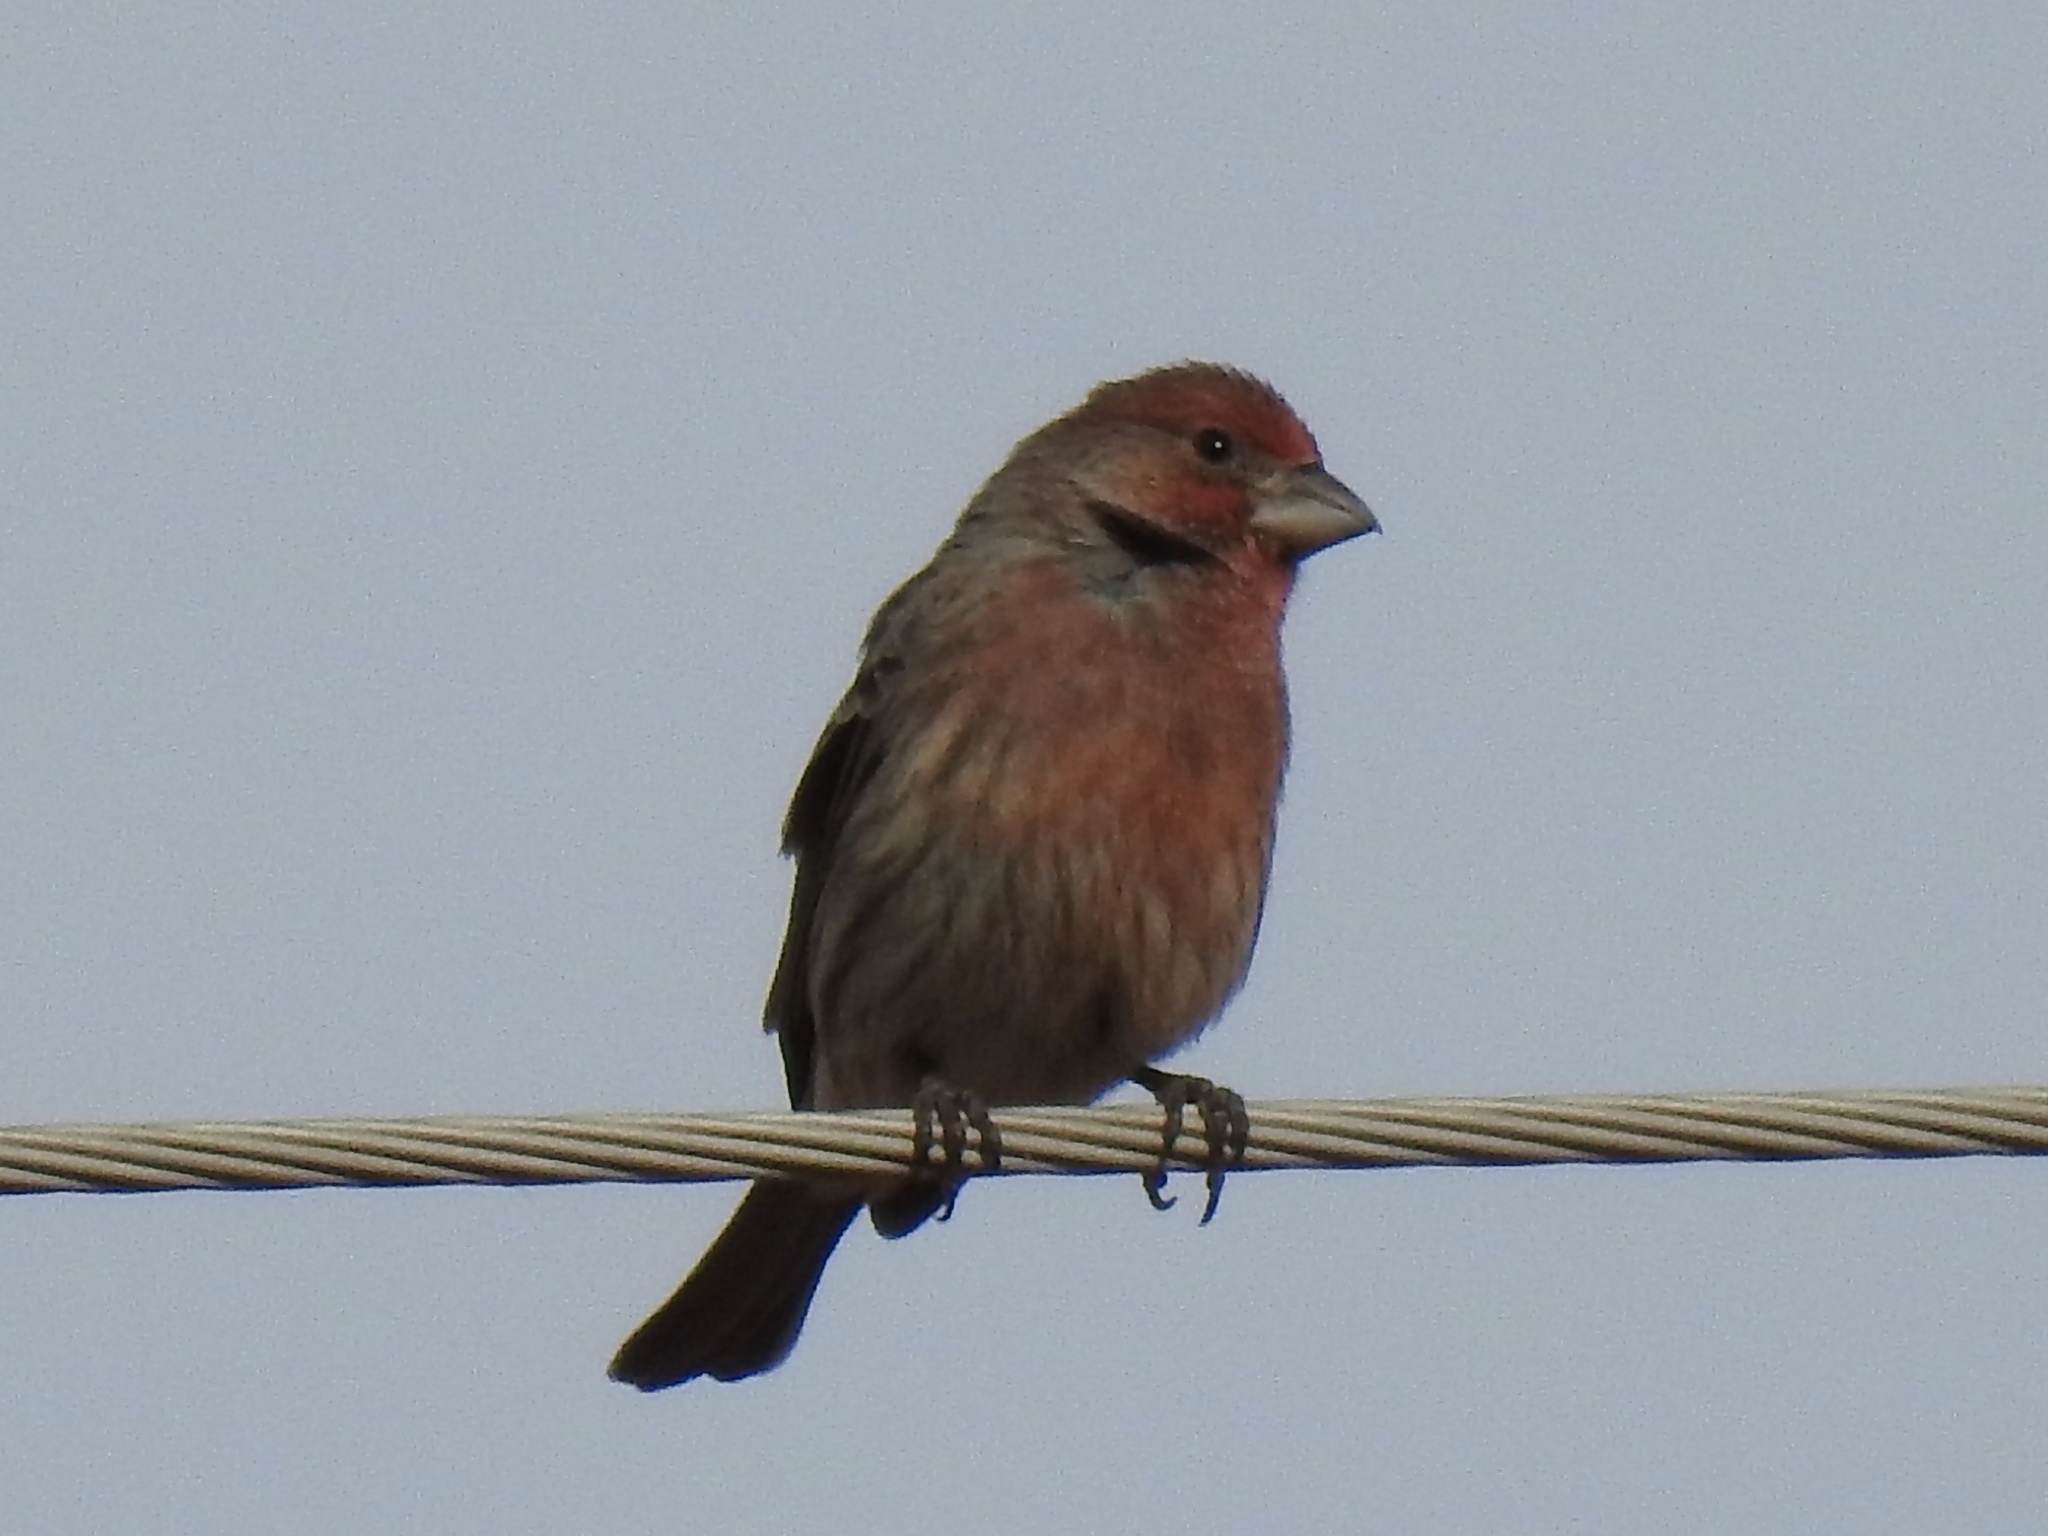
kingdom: Animalia
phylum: Chordata
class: Aves
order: Passeriformes
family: Fringillidae
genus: Haemorhous
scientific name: Haemorhous mexicanus
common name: House finch
